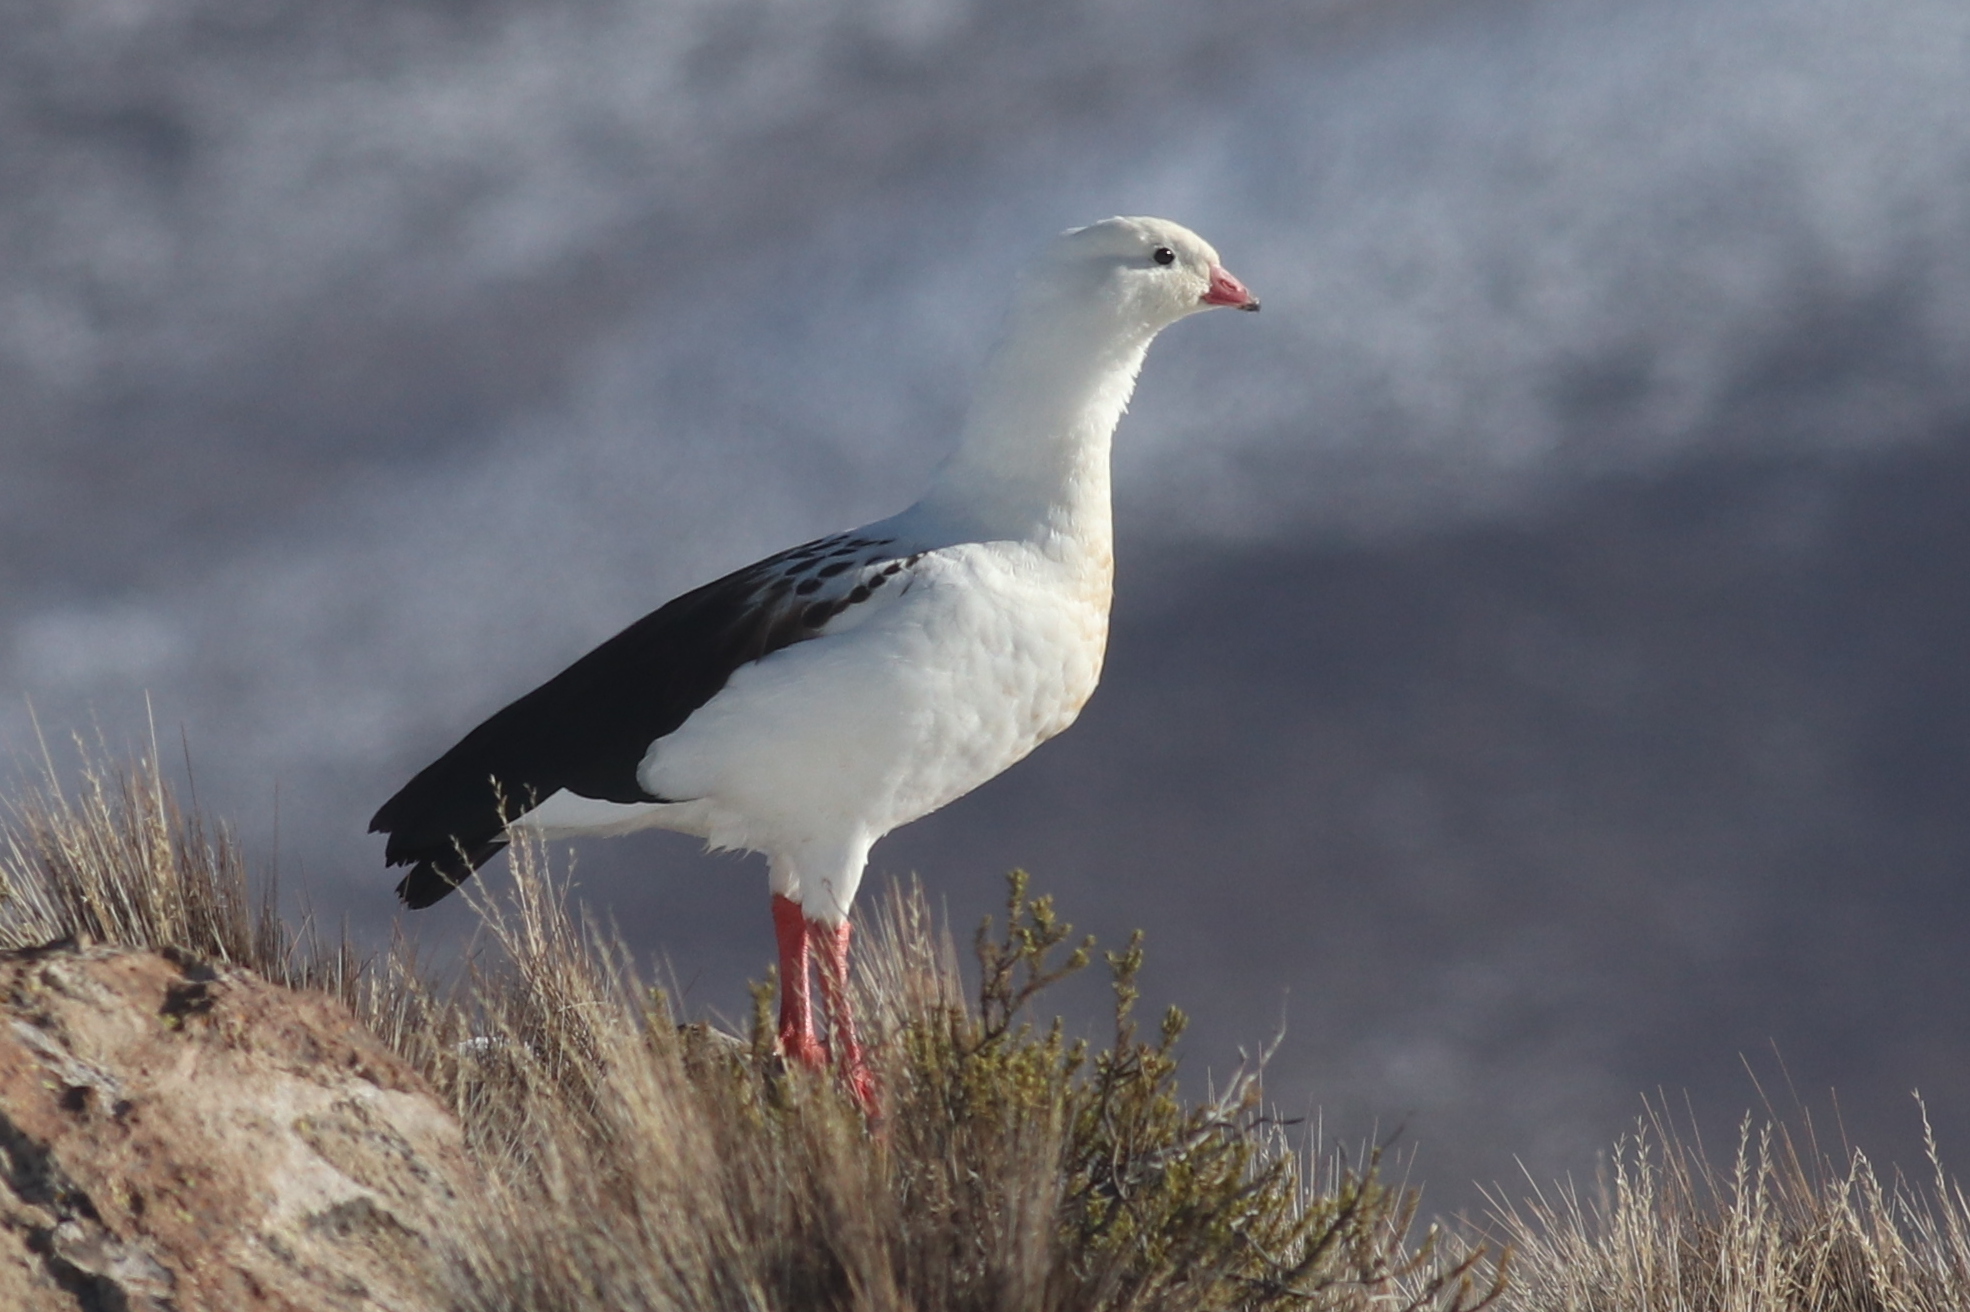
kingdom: Animalia
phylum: Chordata
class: Aves
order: Anseriformes
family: Anatidae
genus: Chloephaga
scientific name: Chloephaga melanoptera
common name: Andean goose
